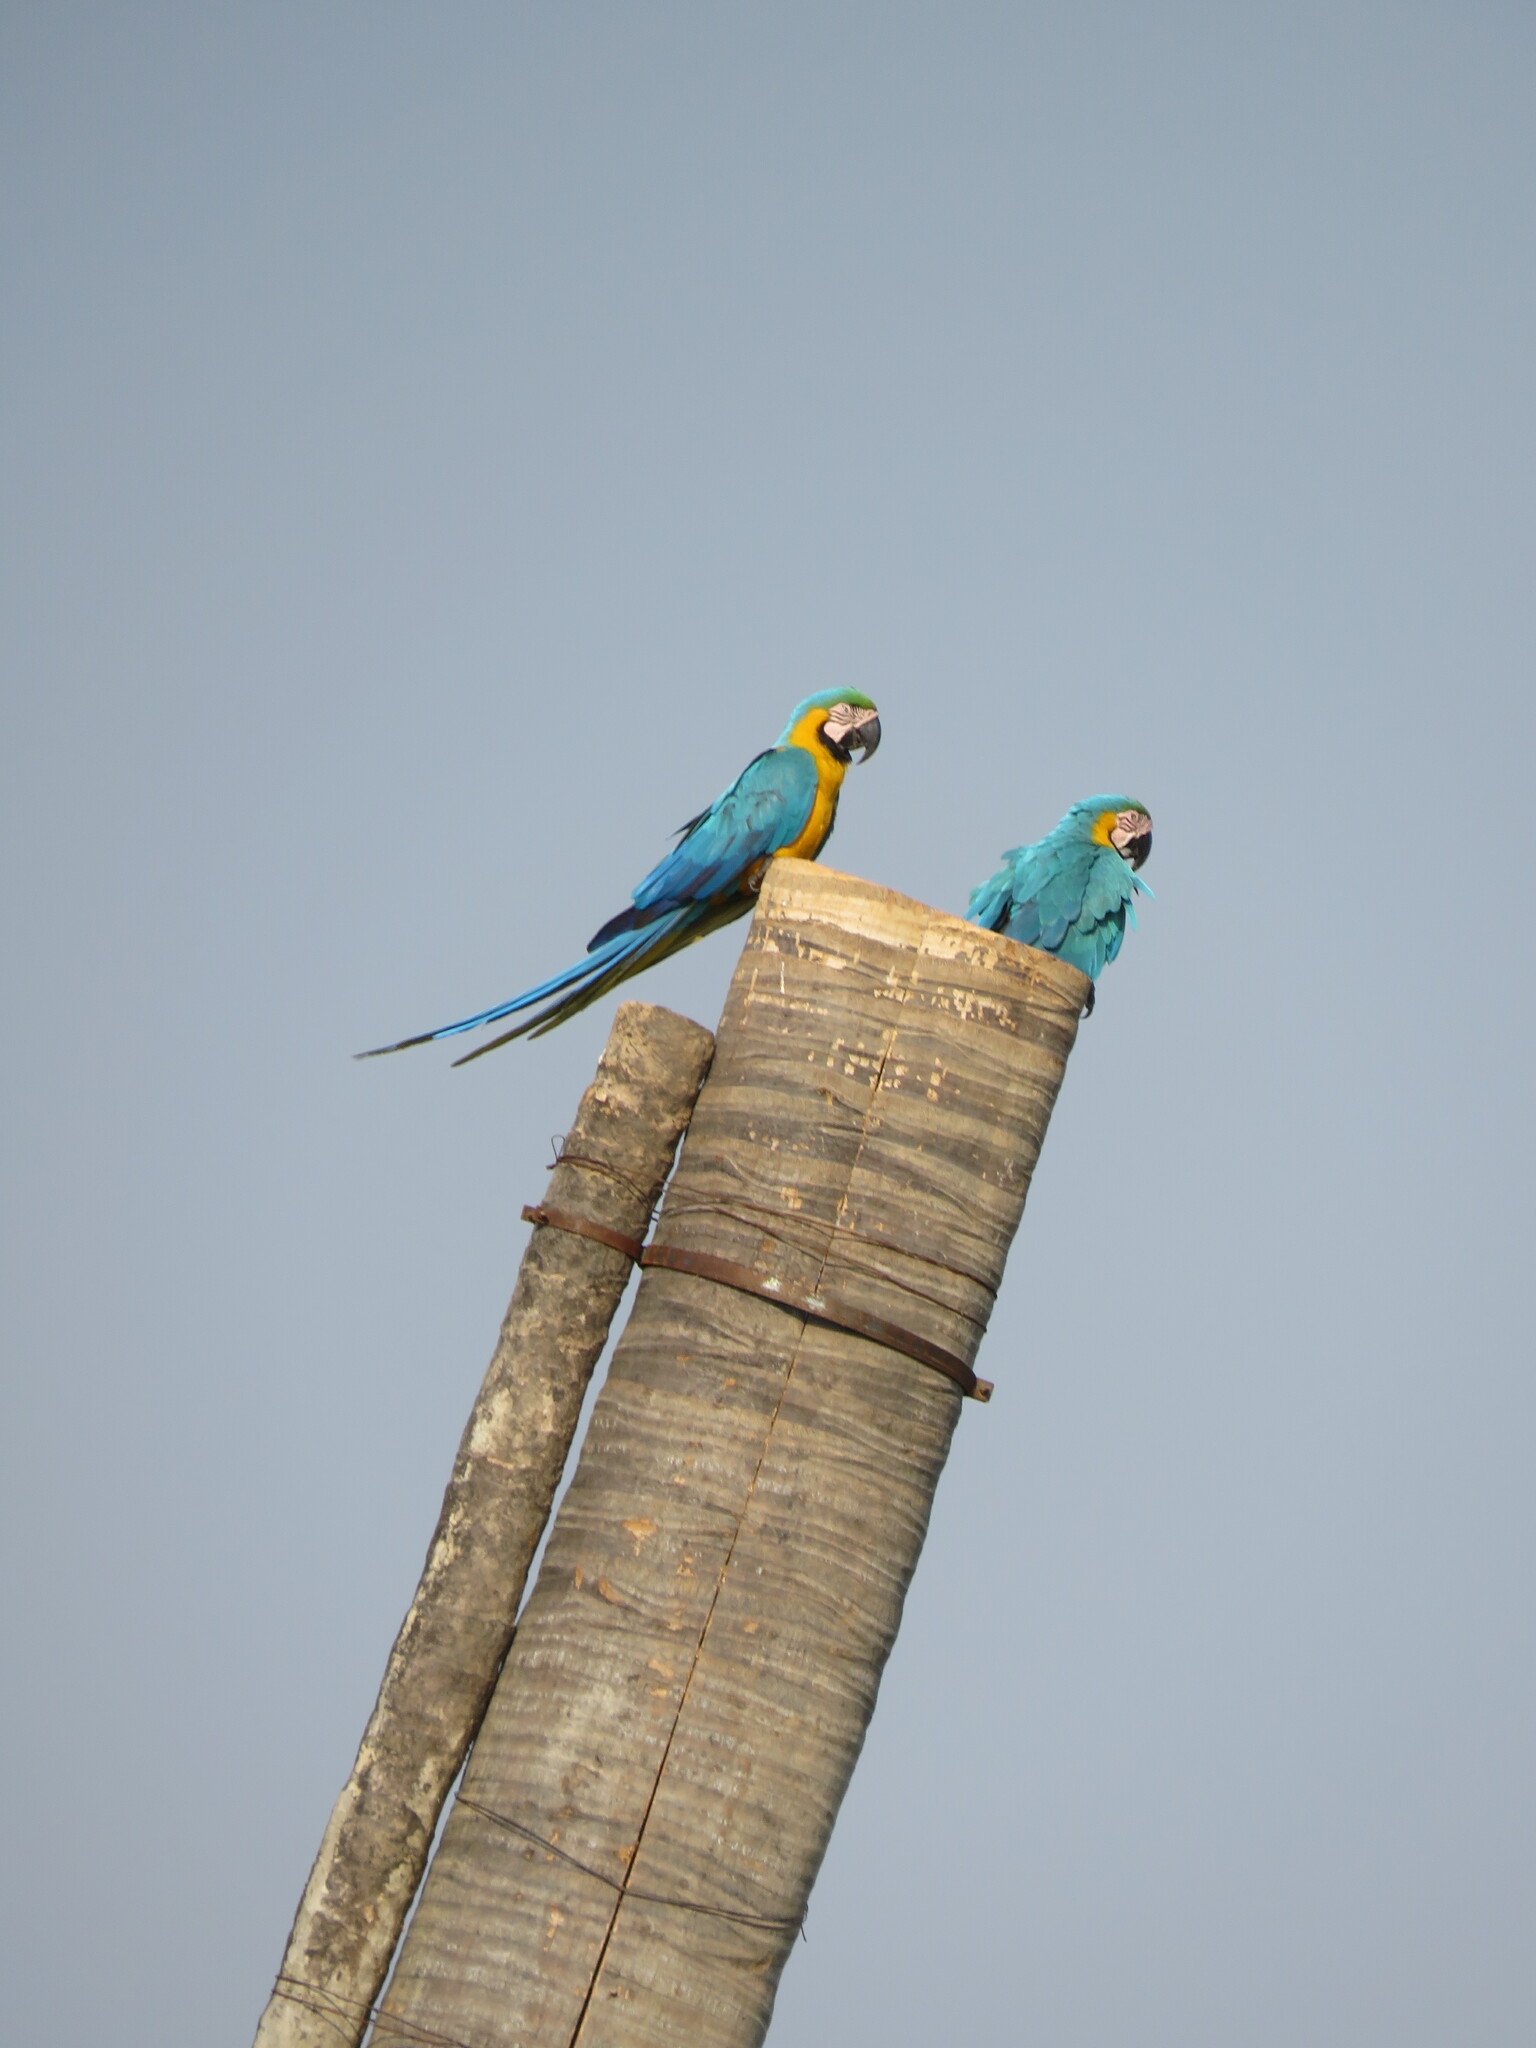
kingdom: Animalia
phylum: Chordata
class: Aves
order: Psittaciformes
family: Psittacidae
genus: Ara
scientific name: Ara ararauna
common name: Blue-and-yellow macaw
